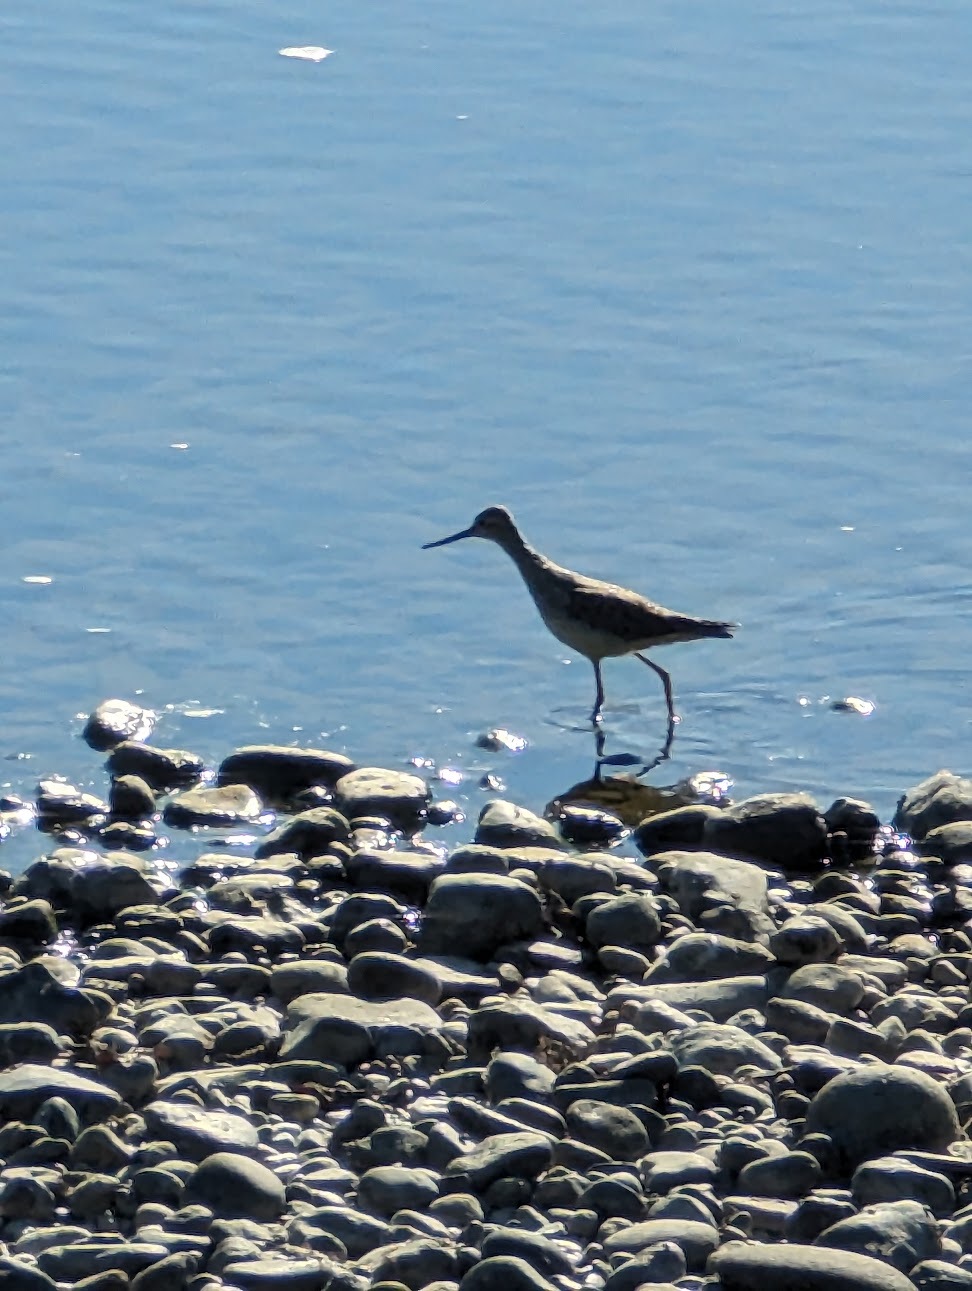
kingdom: Animalia
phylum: Chordata
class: Aves
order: Charadriiformes
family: Scolopacidae
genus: Tringa
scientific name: Tringa melanoleuca
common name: Greater yellowlegs
